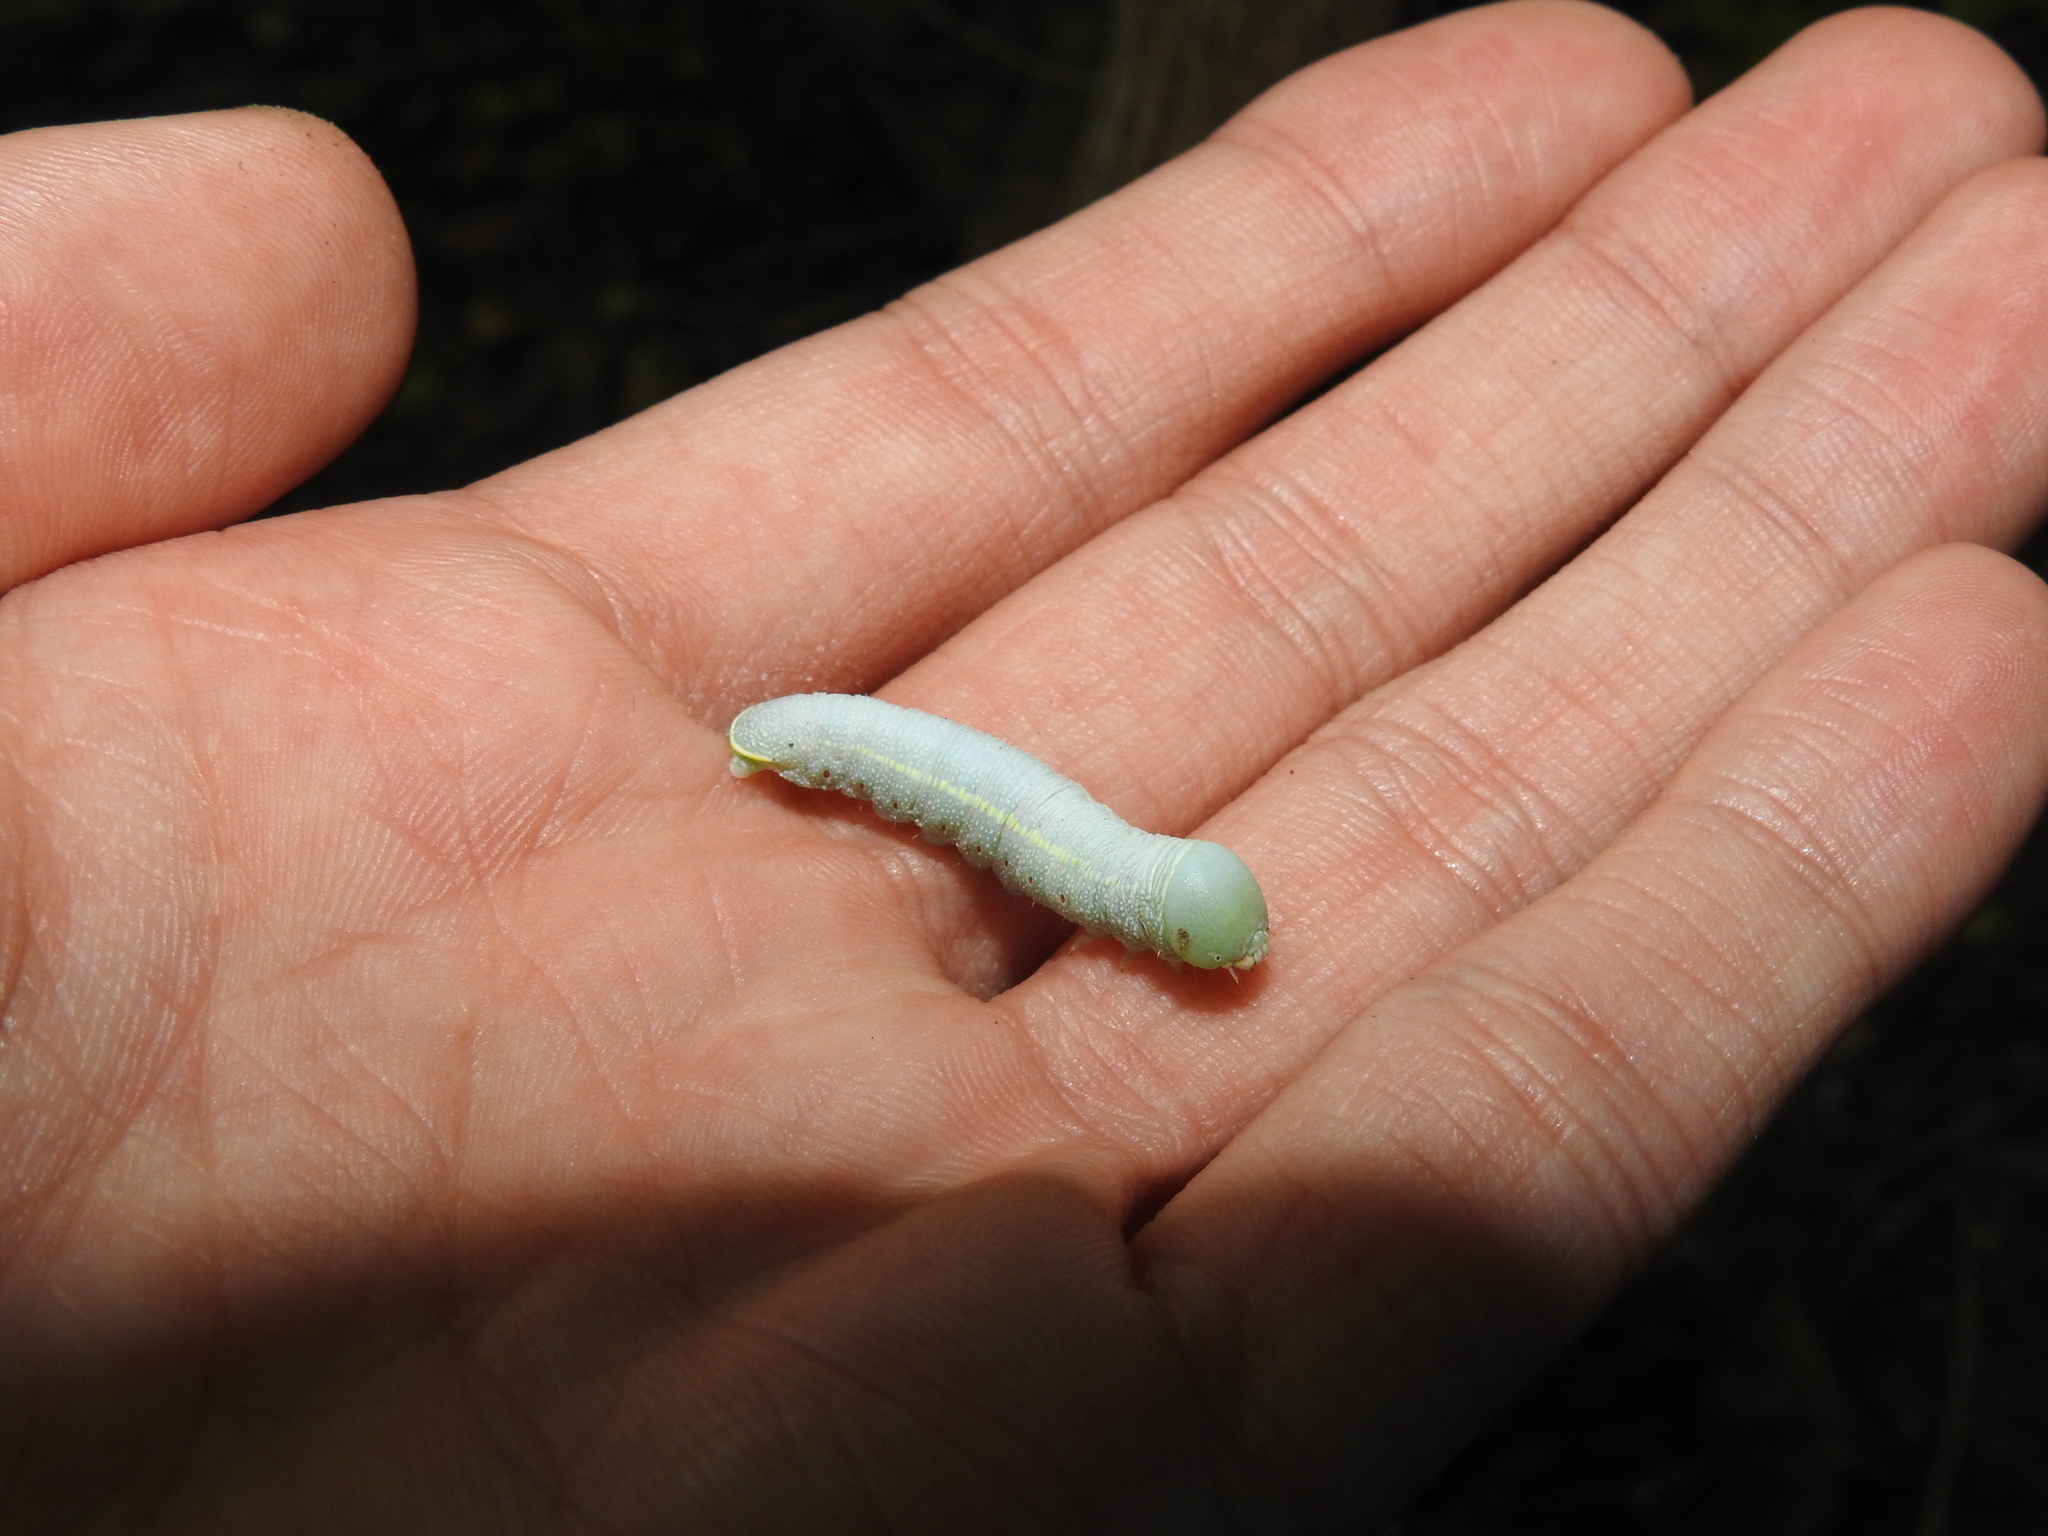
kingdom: Animalia
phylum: Arthropoda
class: Insecta
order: Lepidoptera
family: Notodontidae
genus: Nadata
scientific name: Nadata gibbosa
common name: White-dotted prominent
